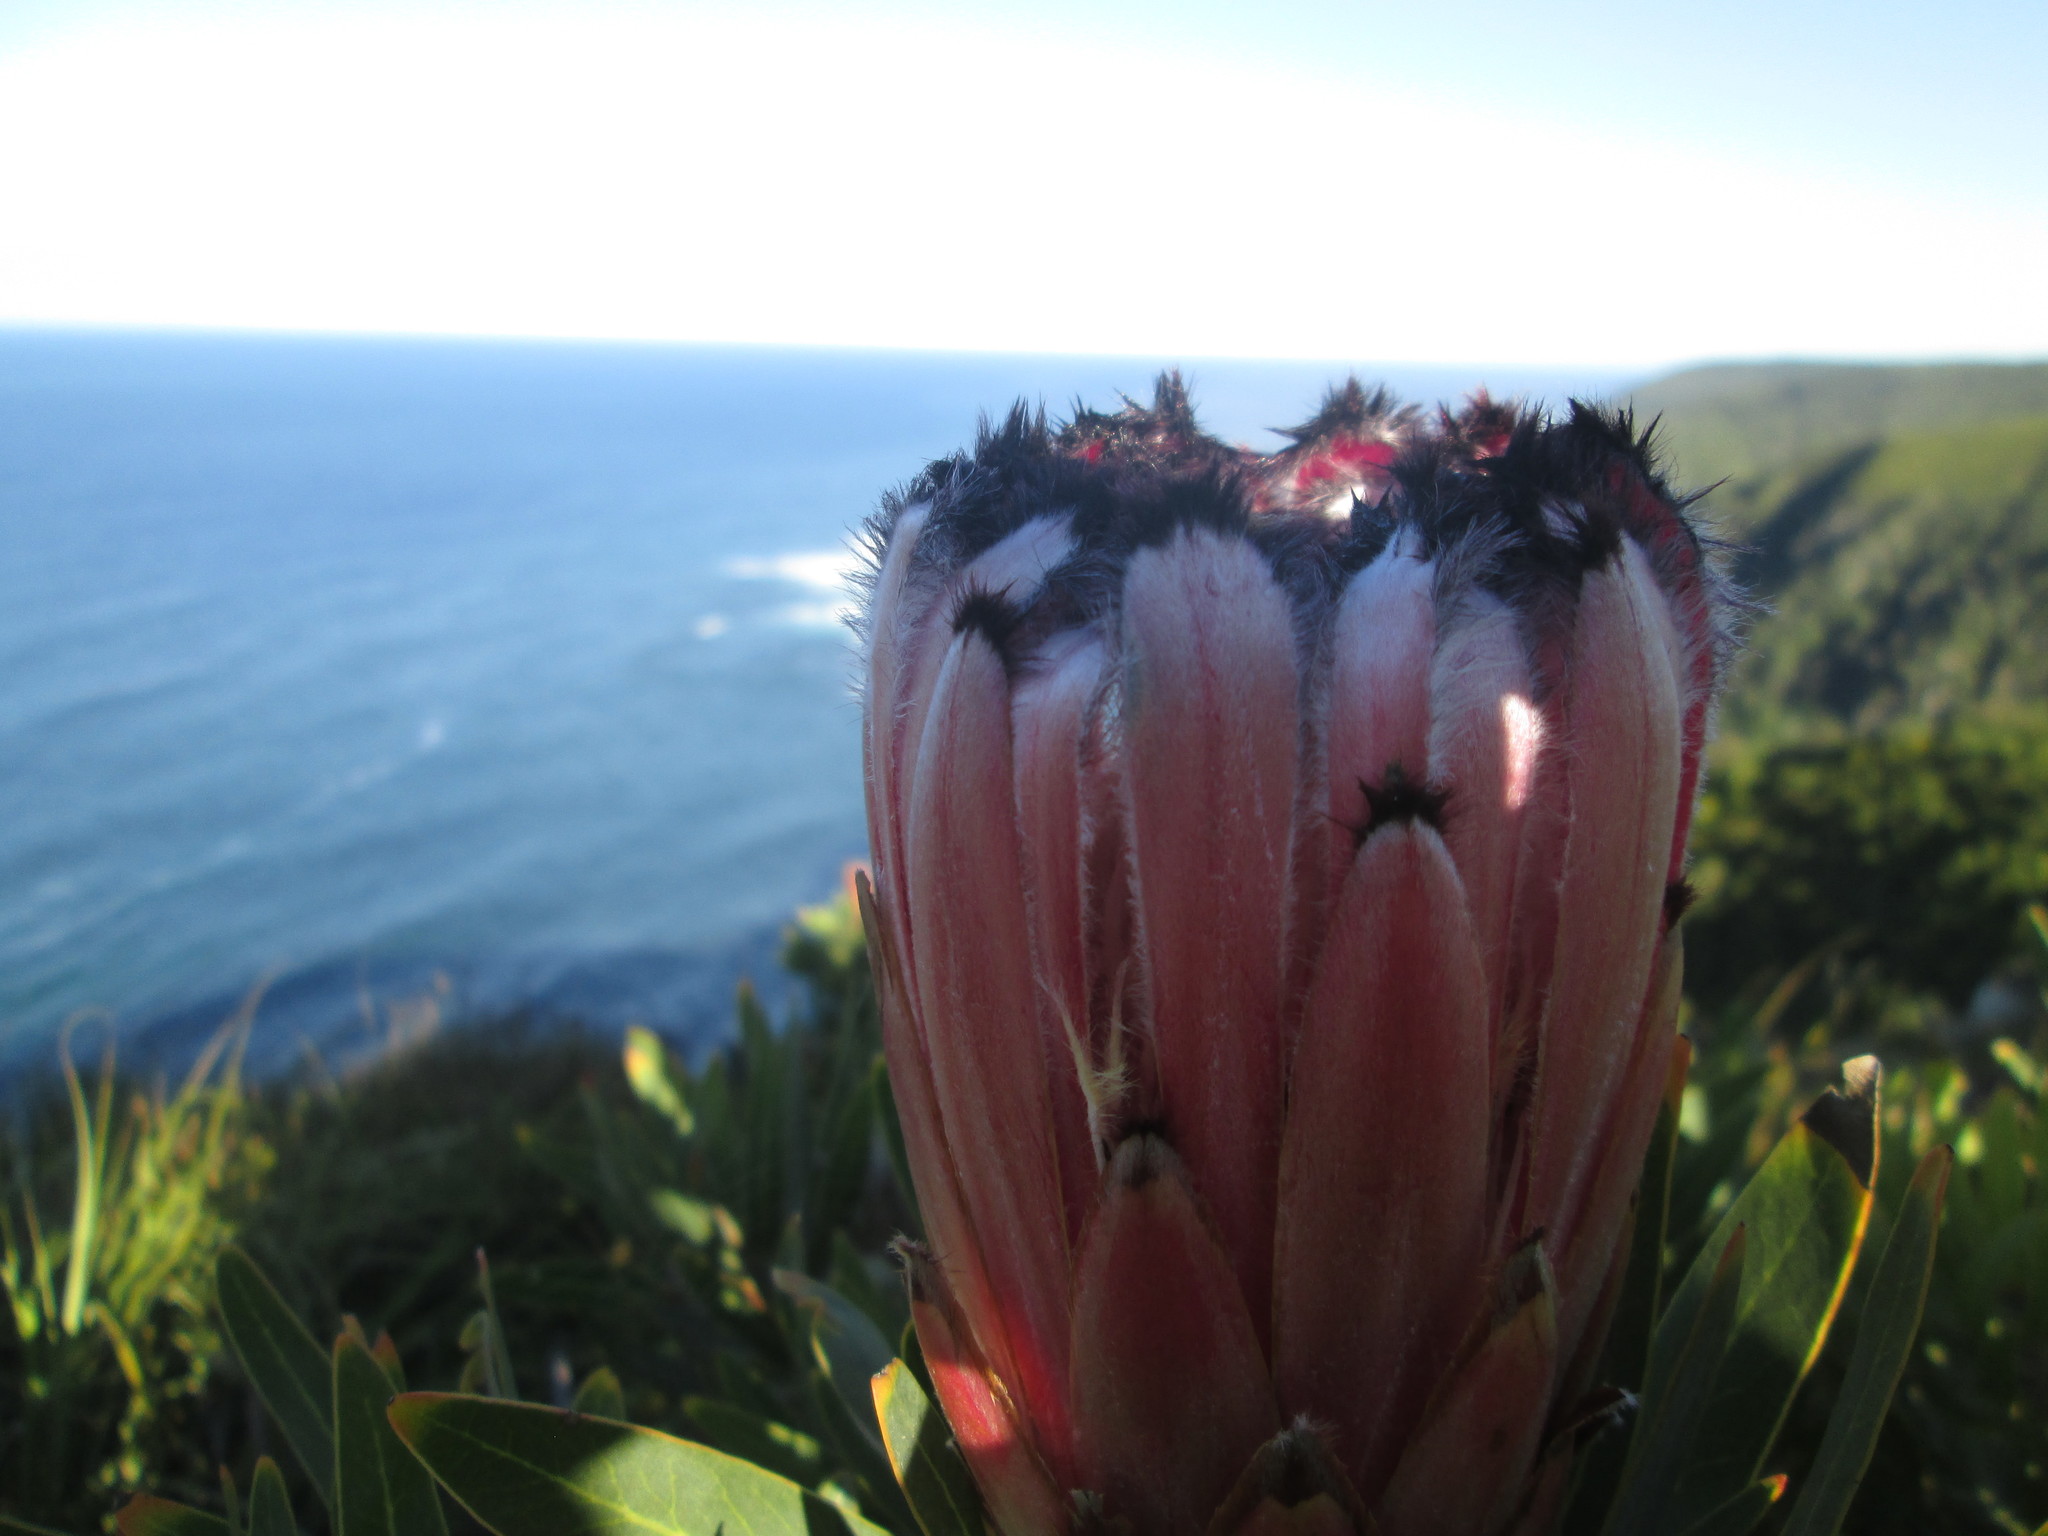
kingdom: Plantae
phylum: Tracheophyta
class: Magnoliopsida
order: Proteales
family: Proteaceae
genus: Protea
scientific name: Protea neriifolia
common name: Blue sugarbush
